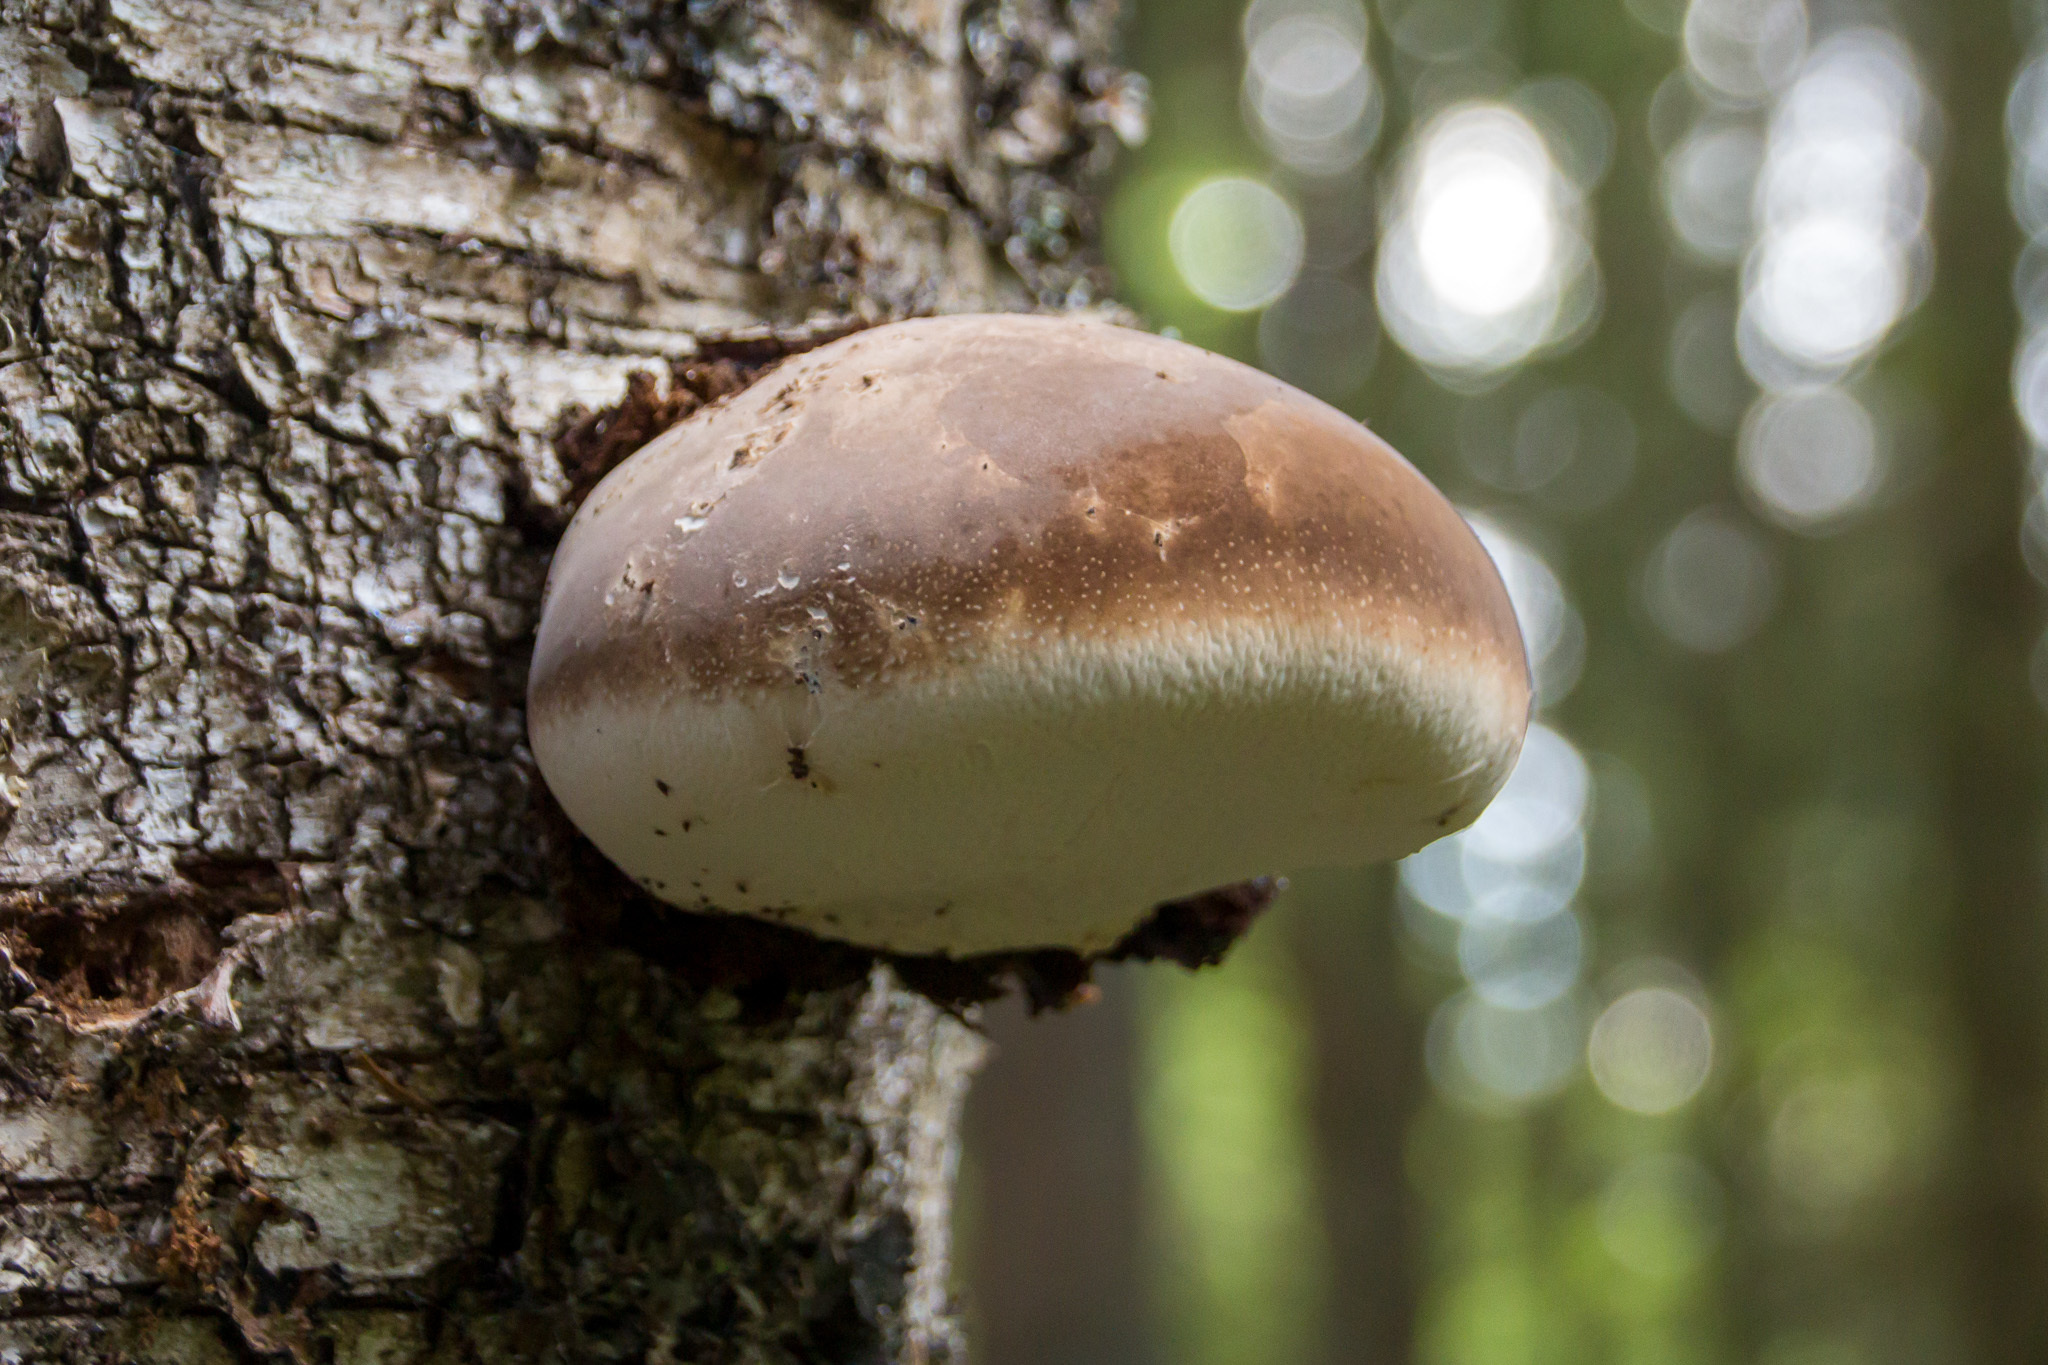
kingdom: Fungi
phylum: Basidiomycota
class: Agaricomycetes
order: Polyporales
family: Fomitopsidaceae
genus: Fomitopsis
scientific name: Fomitopsis betulina
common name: Birch polypore
